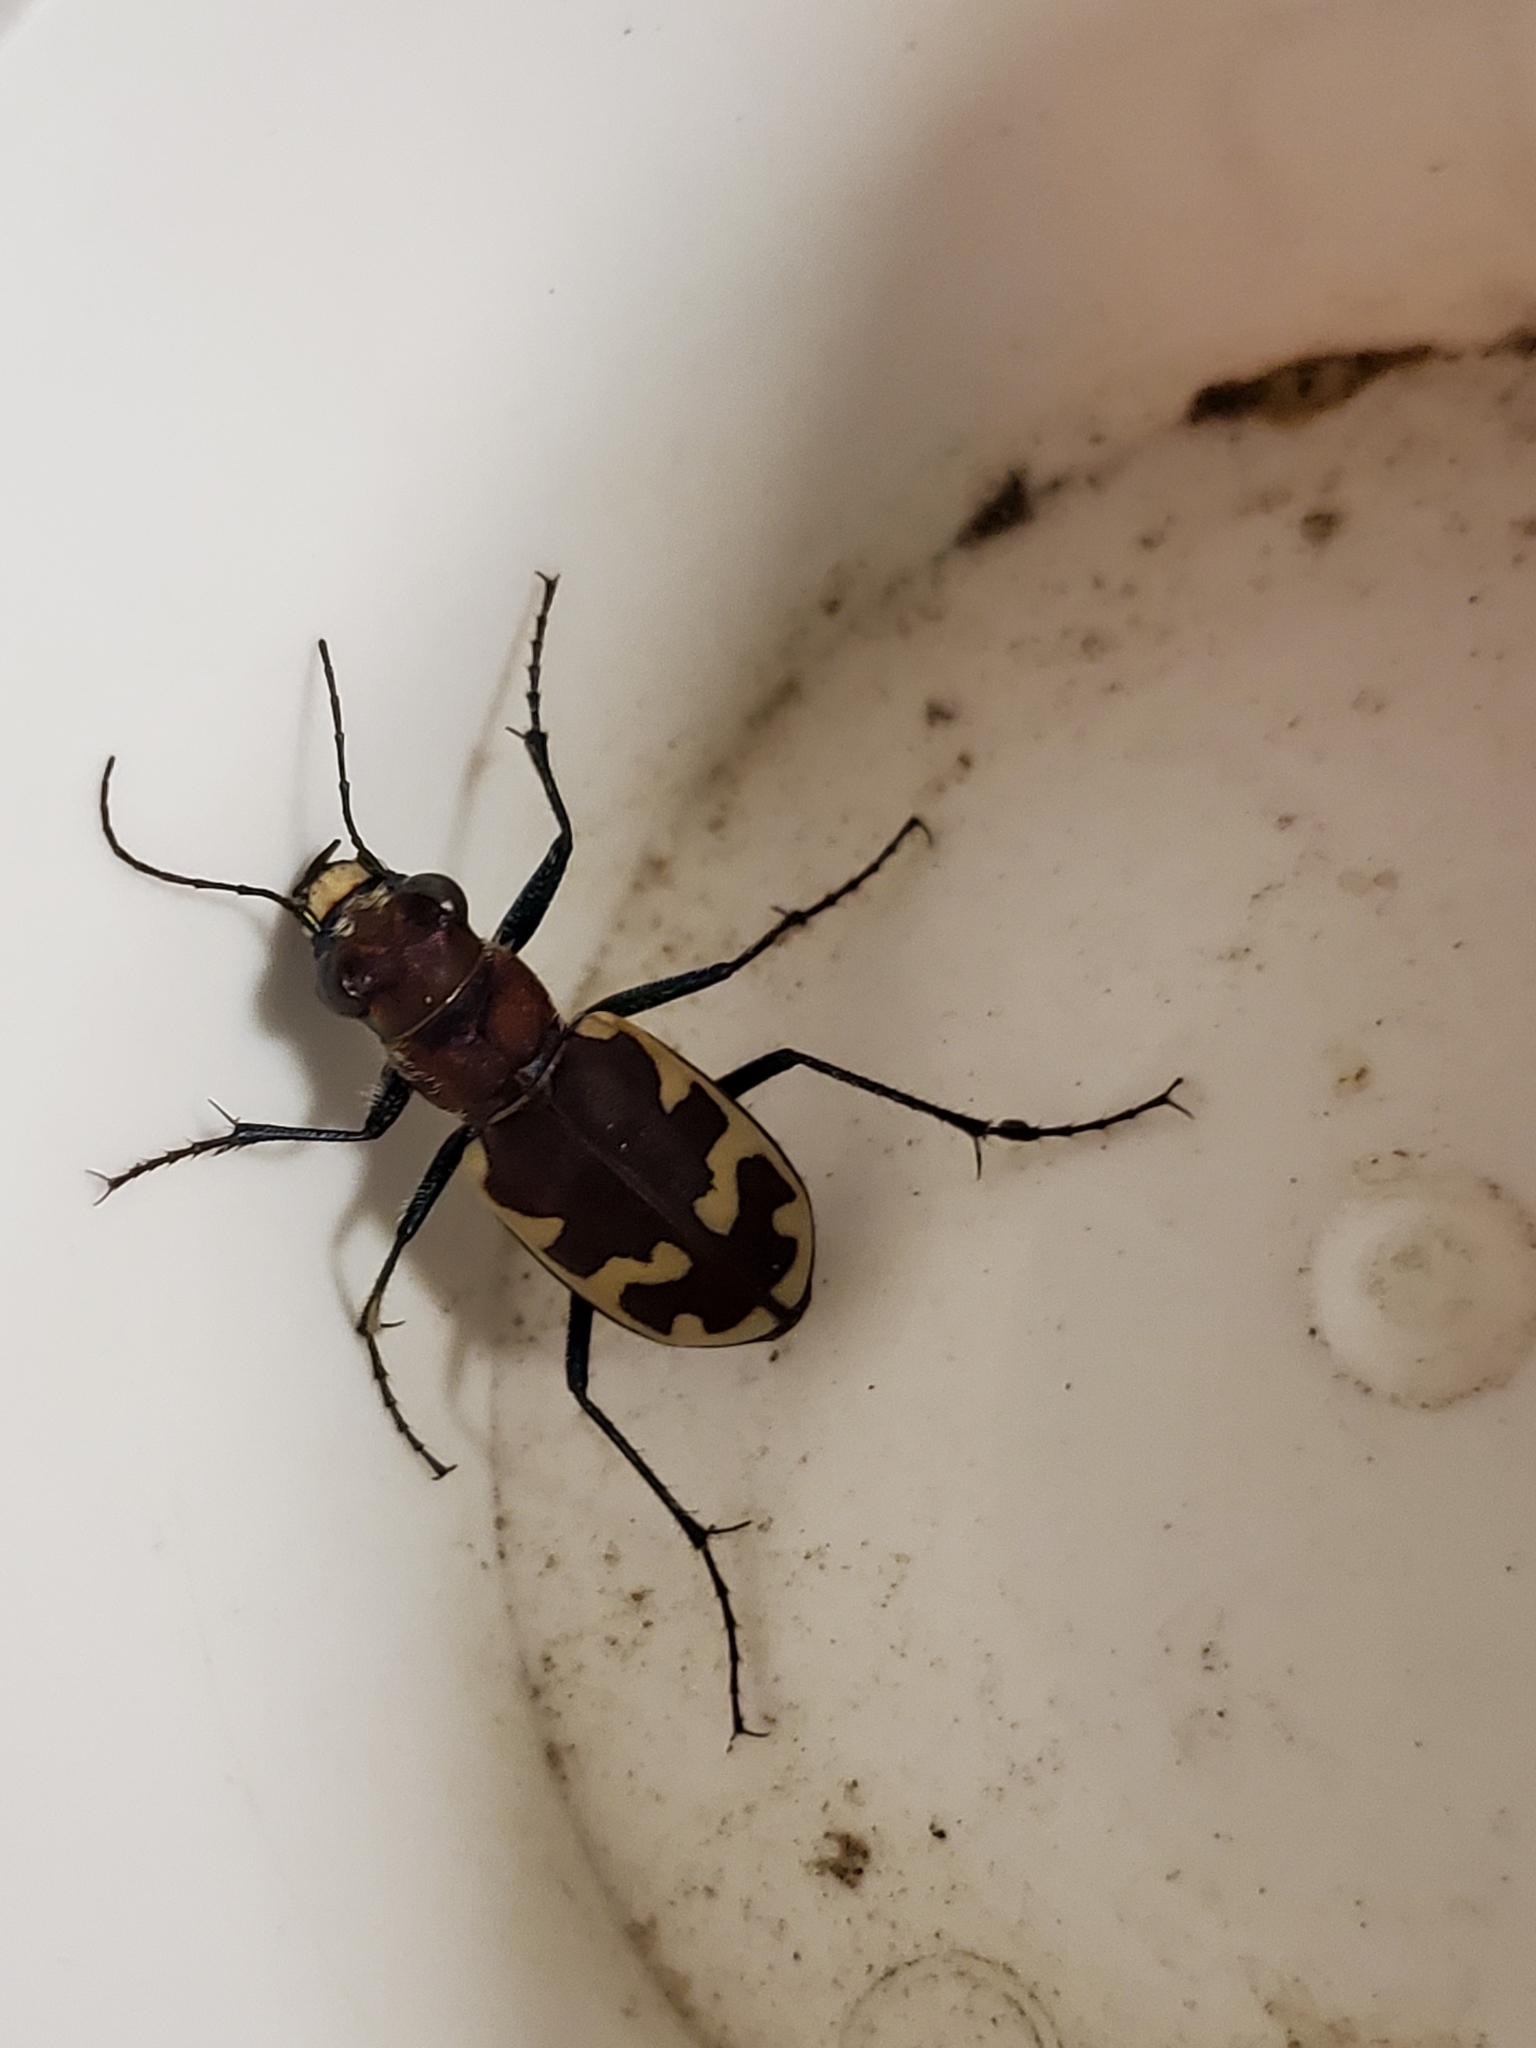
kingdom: Animalia
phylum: Arthropoda
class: Insecta
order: Coleoptera
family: Carabidae
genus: Cicindela
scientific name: Cicindela formosa
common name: Big sand tiger beetle
